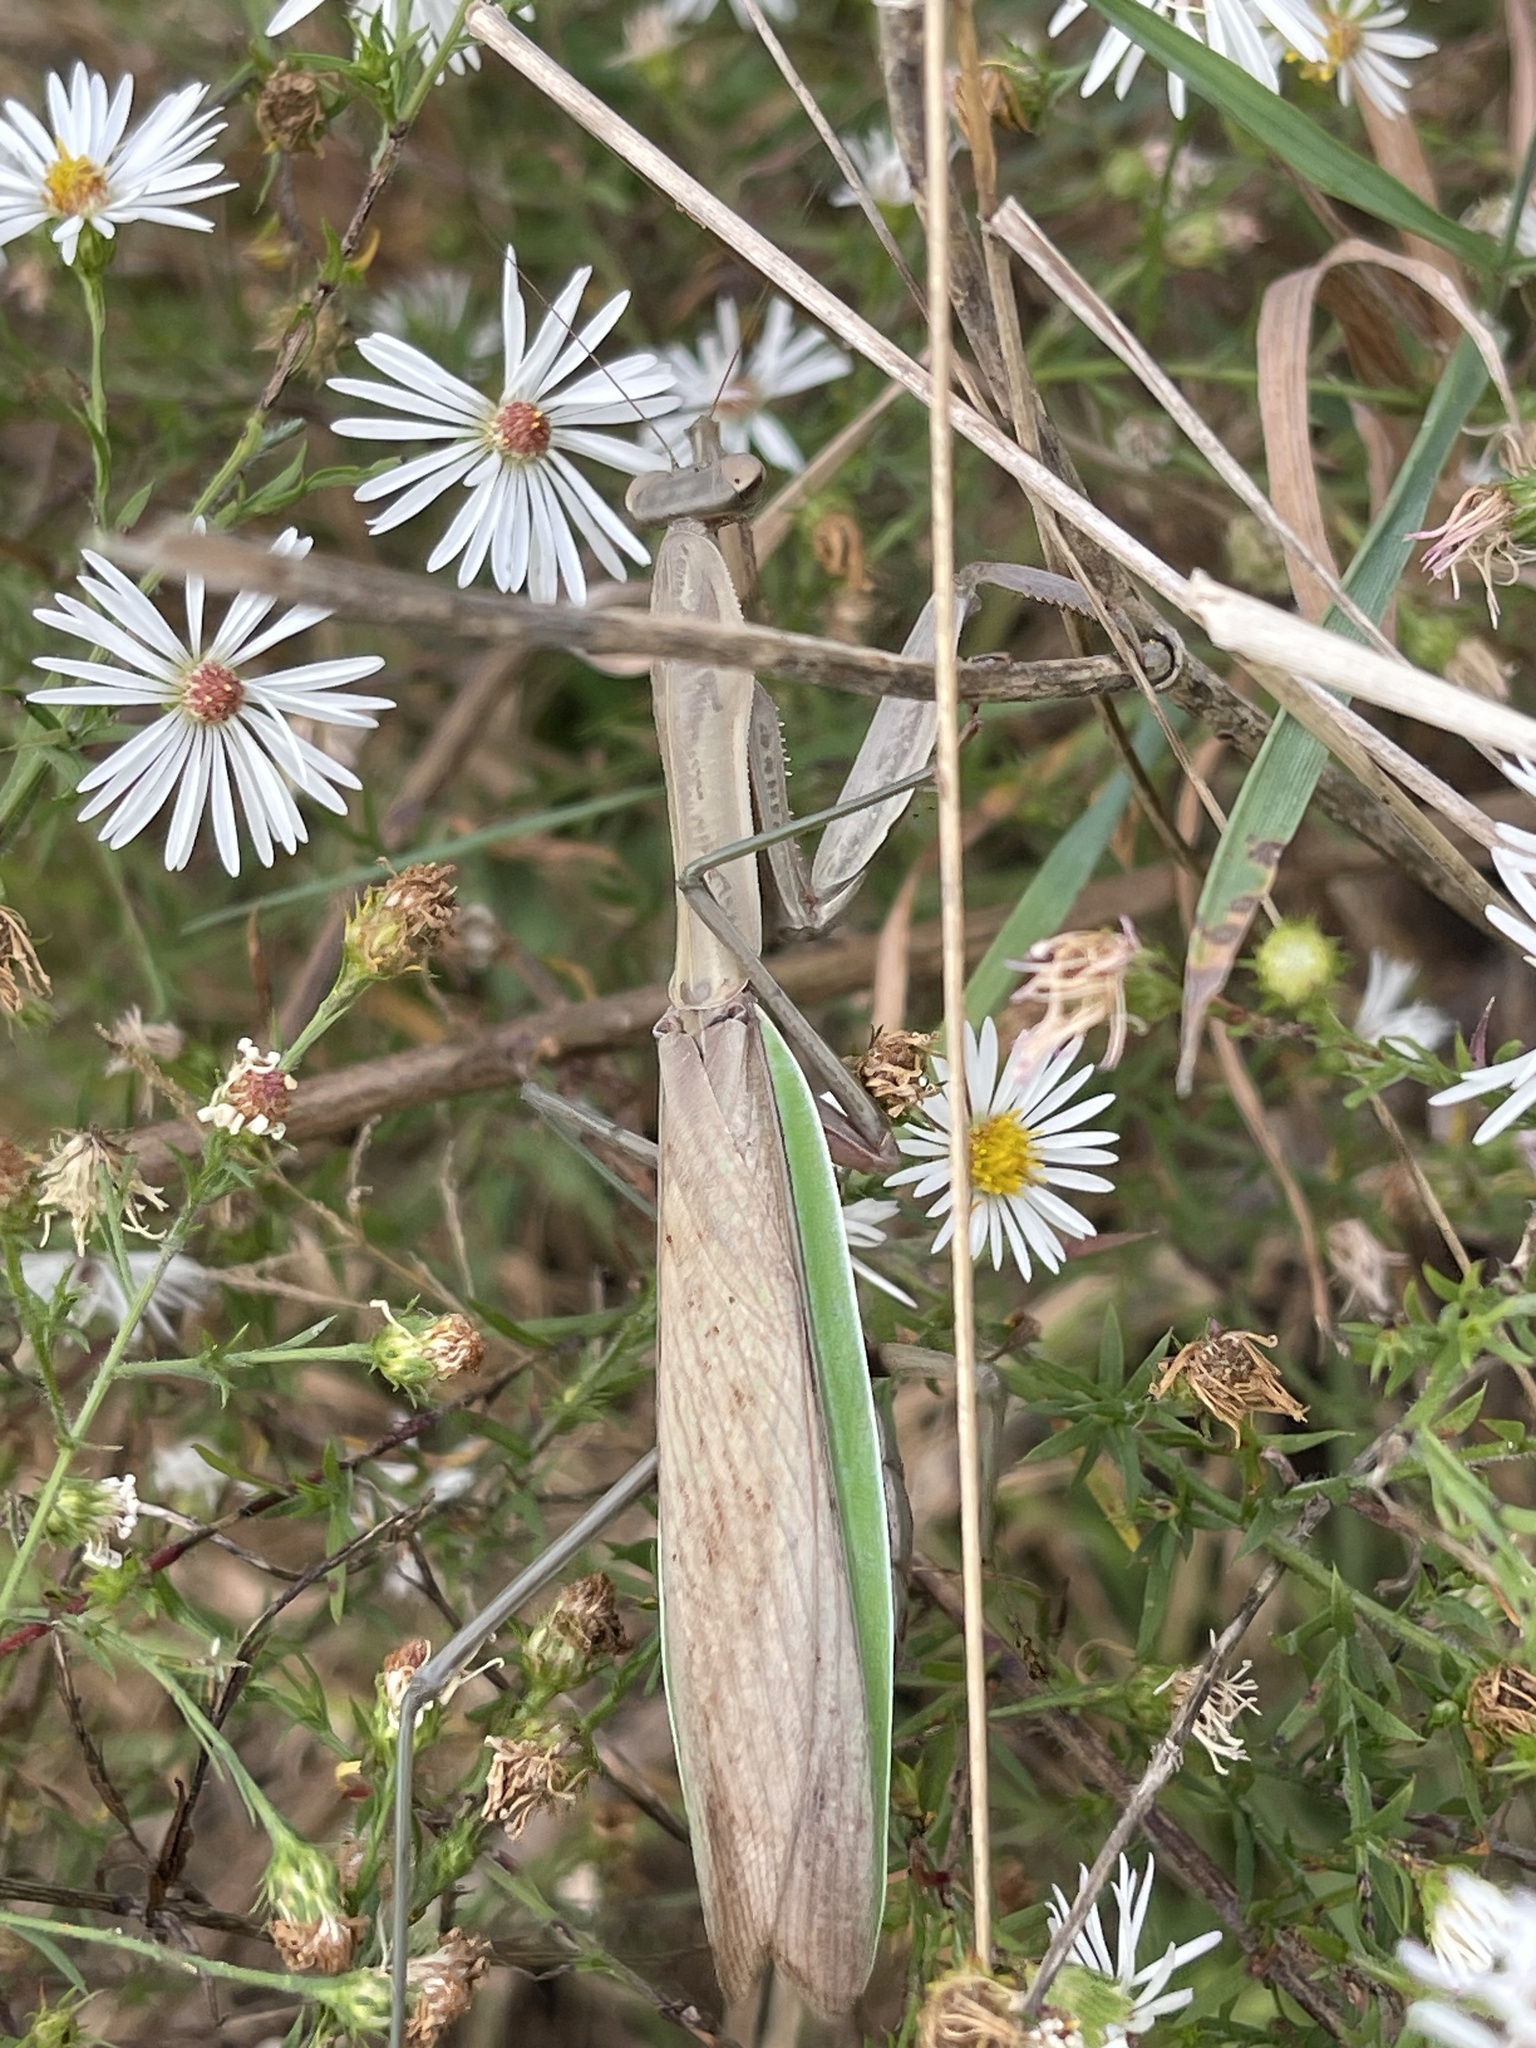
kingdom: Animalia
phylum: Arthropoda
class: Insecta
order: Mantodea
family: Mantidae
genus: Tenodera
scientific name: Tenodera sinensis
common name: Chinese mantis
